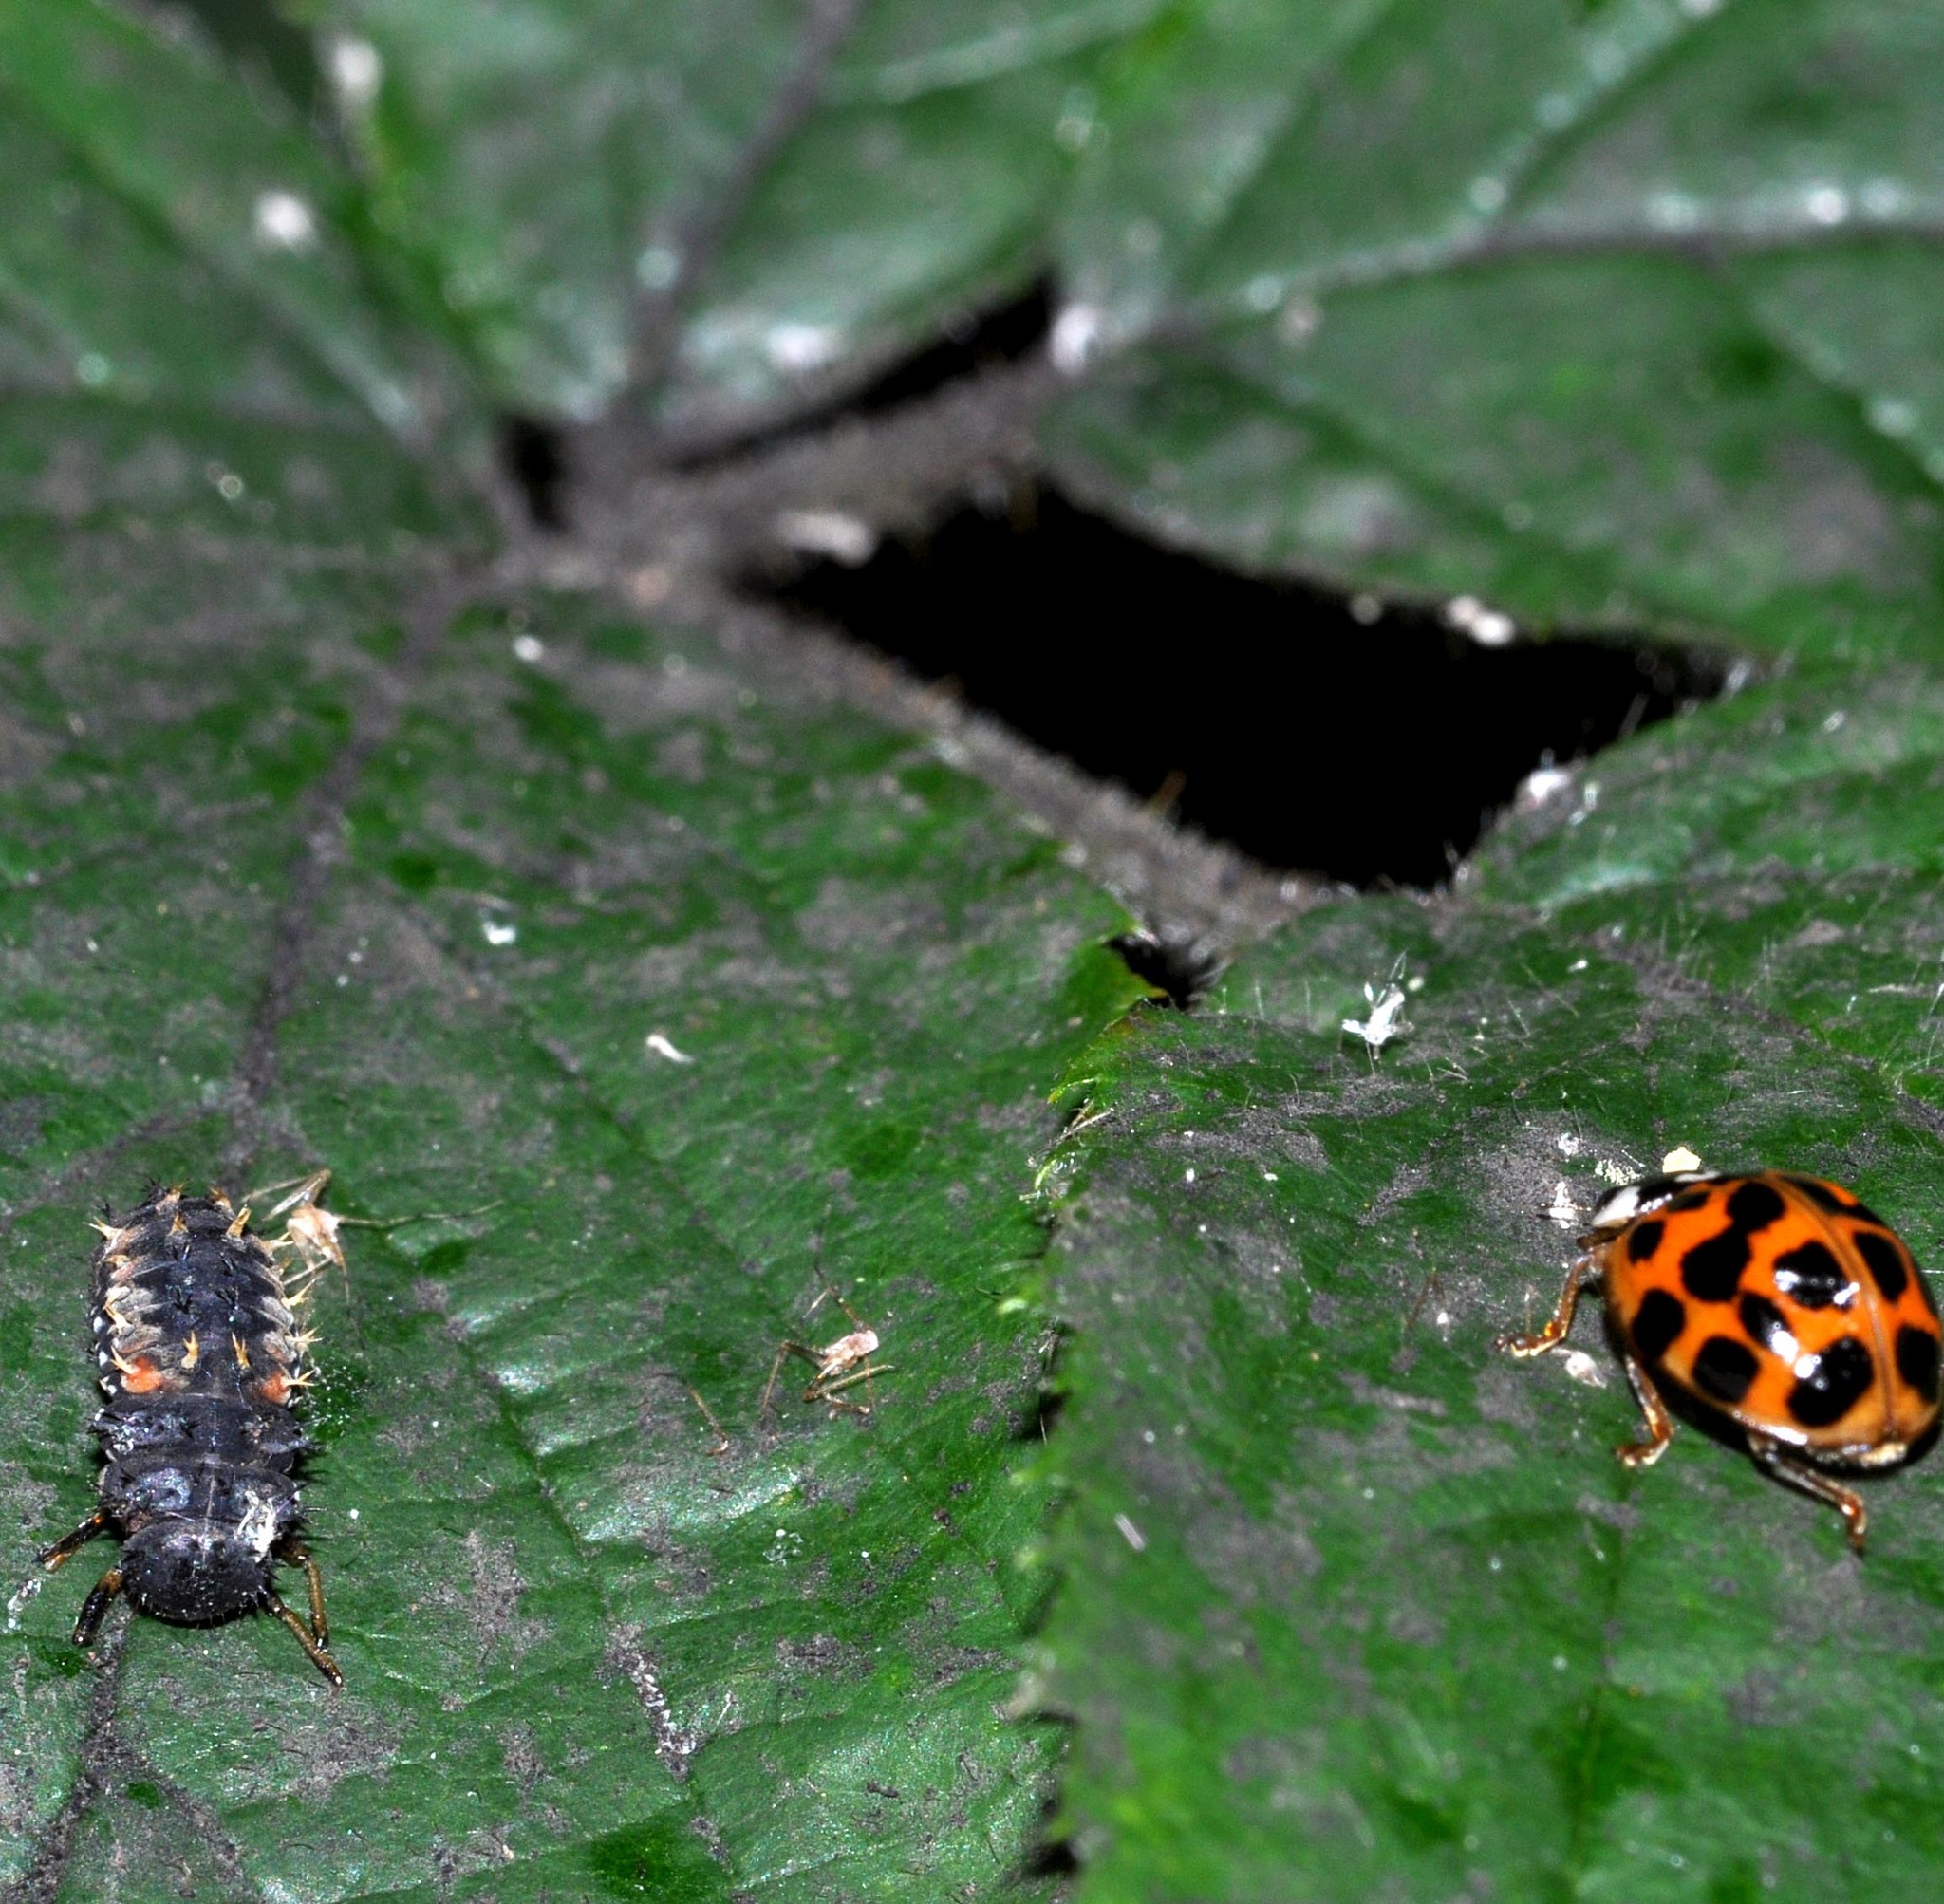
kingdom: Animalia
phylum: Arthropoda
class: Insecta
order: Coleoptera
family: Coccinellidae
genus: Harmonia
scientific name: Harmonia axyridis
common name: Harlequin ladybird
